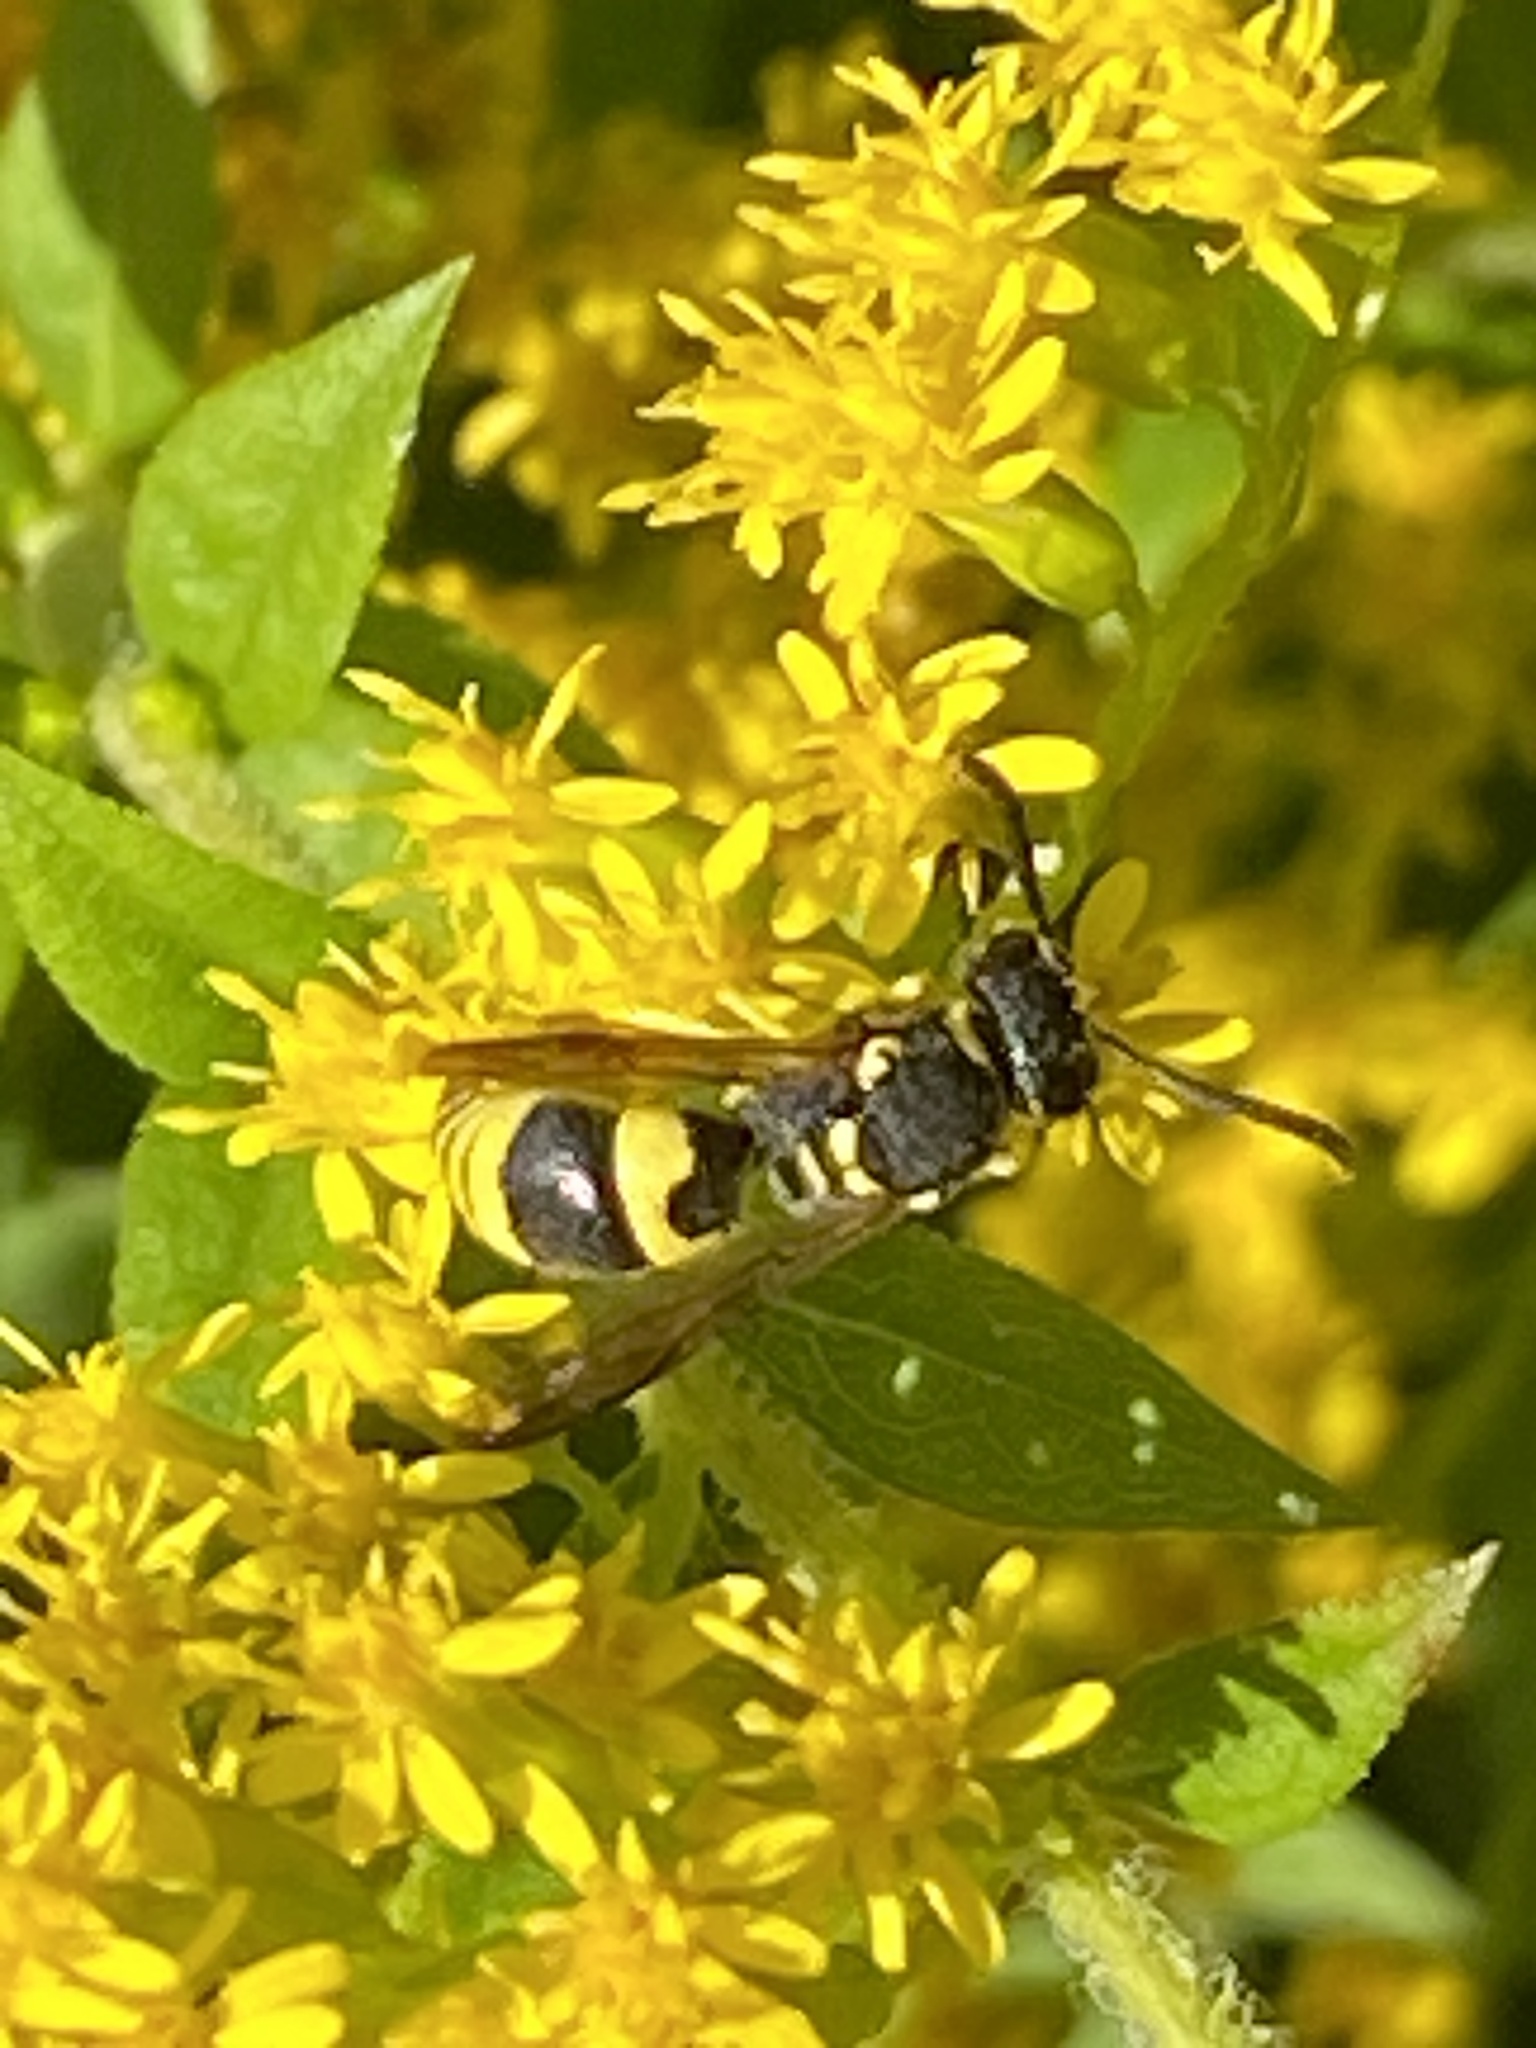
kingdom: Animalia
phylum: Arthropoda
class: Insecta
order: Hymenoptera
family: Vespidae
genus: Ancistrocerus
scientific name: Ancistrocerus gazella
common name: European tube wasp
